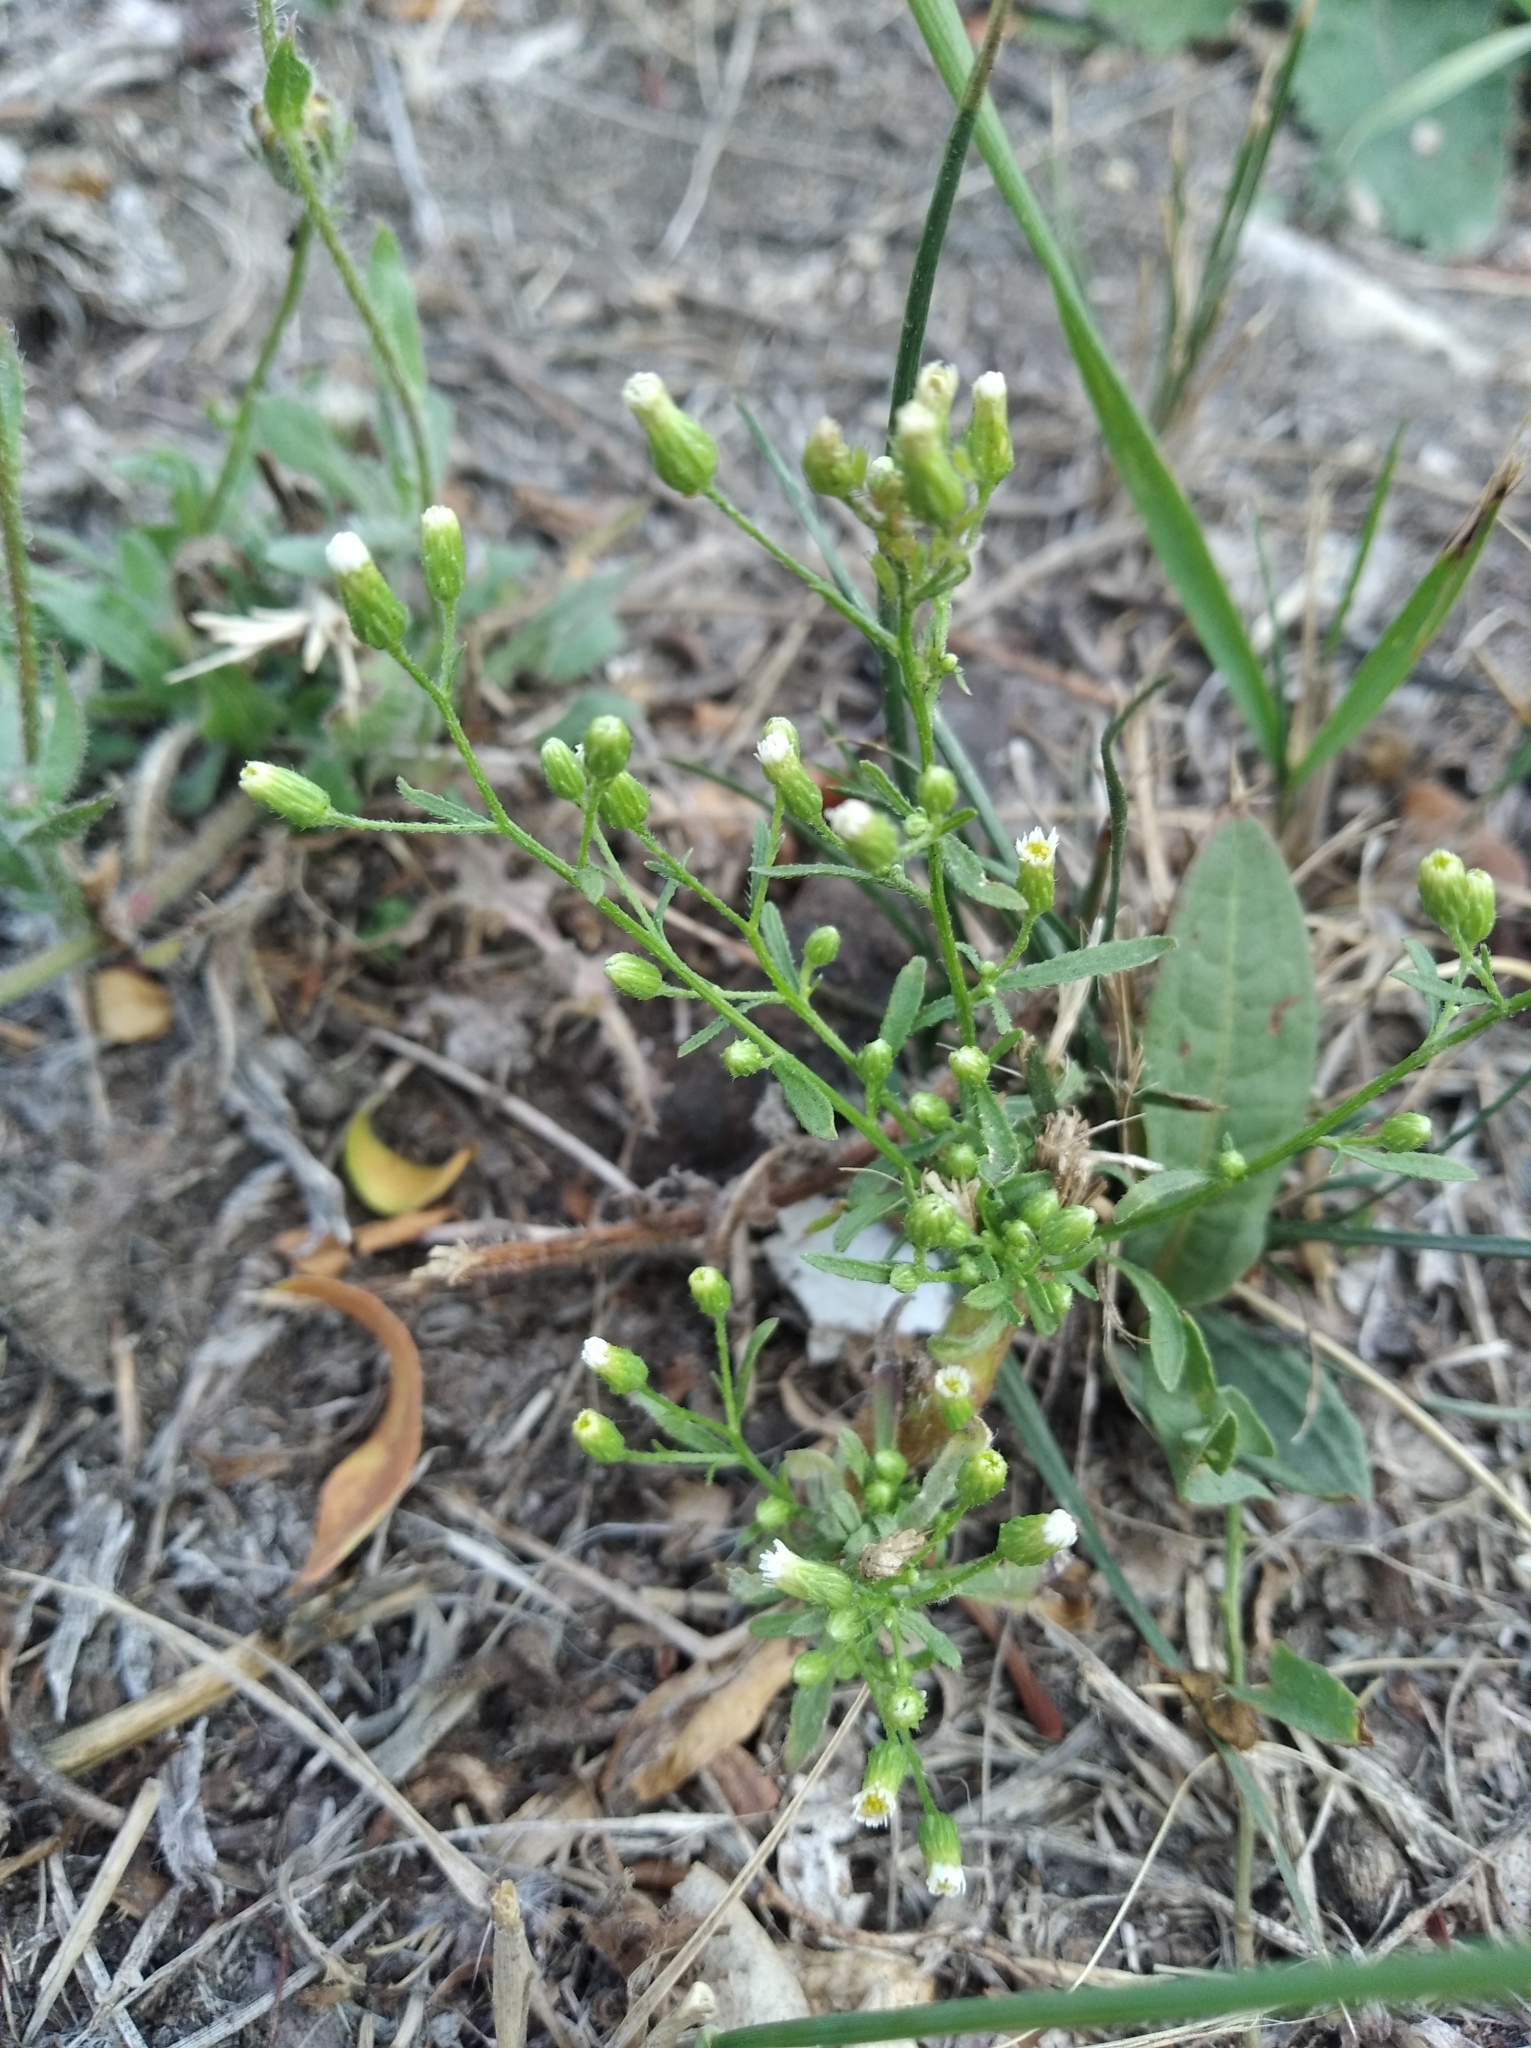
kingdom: Plantae
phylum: Tracheophyta
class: Magnoliopsida
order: Asterales
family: Asteraceae
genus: Erigeron
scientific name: Erigeron canadensis
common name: Canadian fleabane
